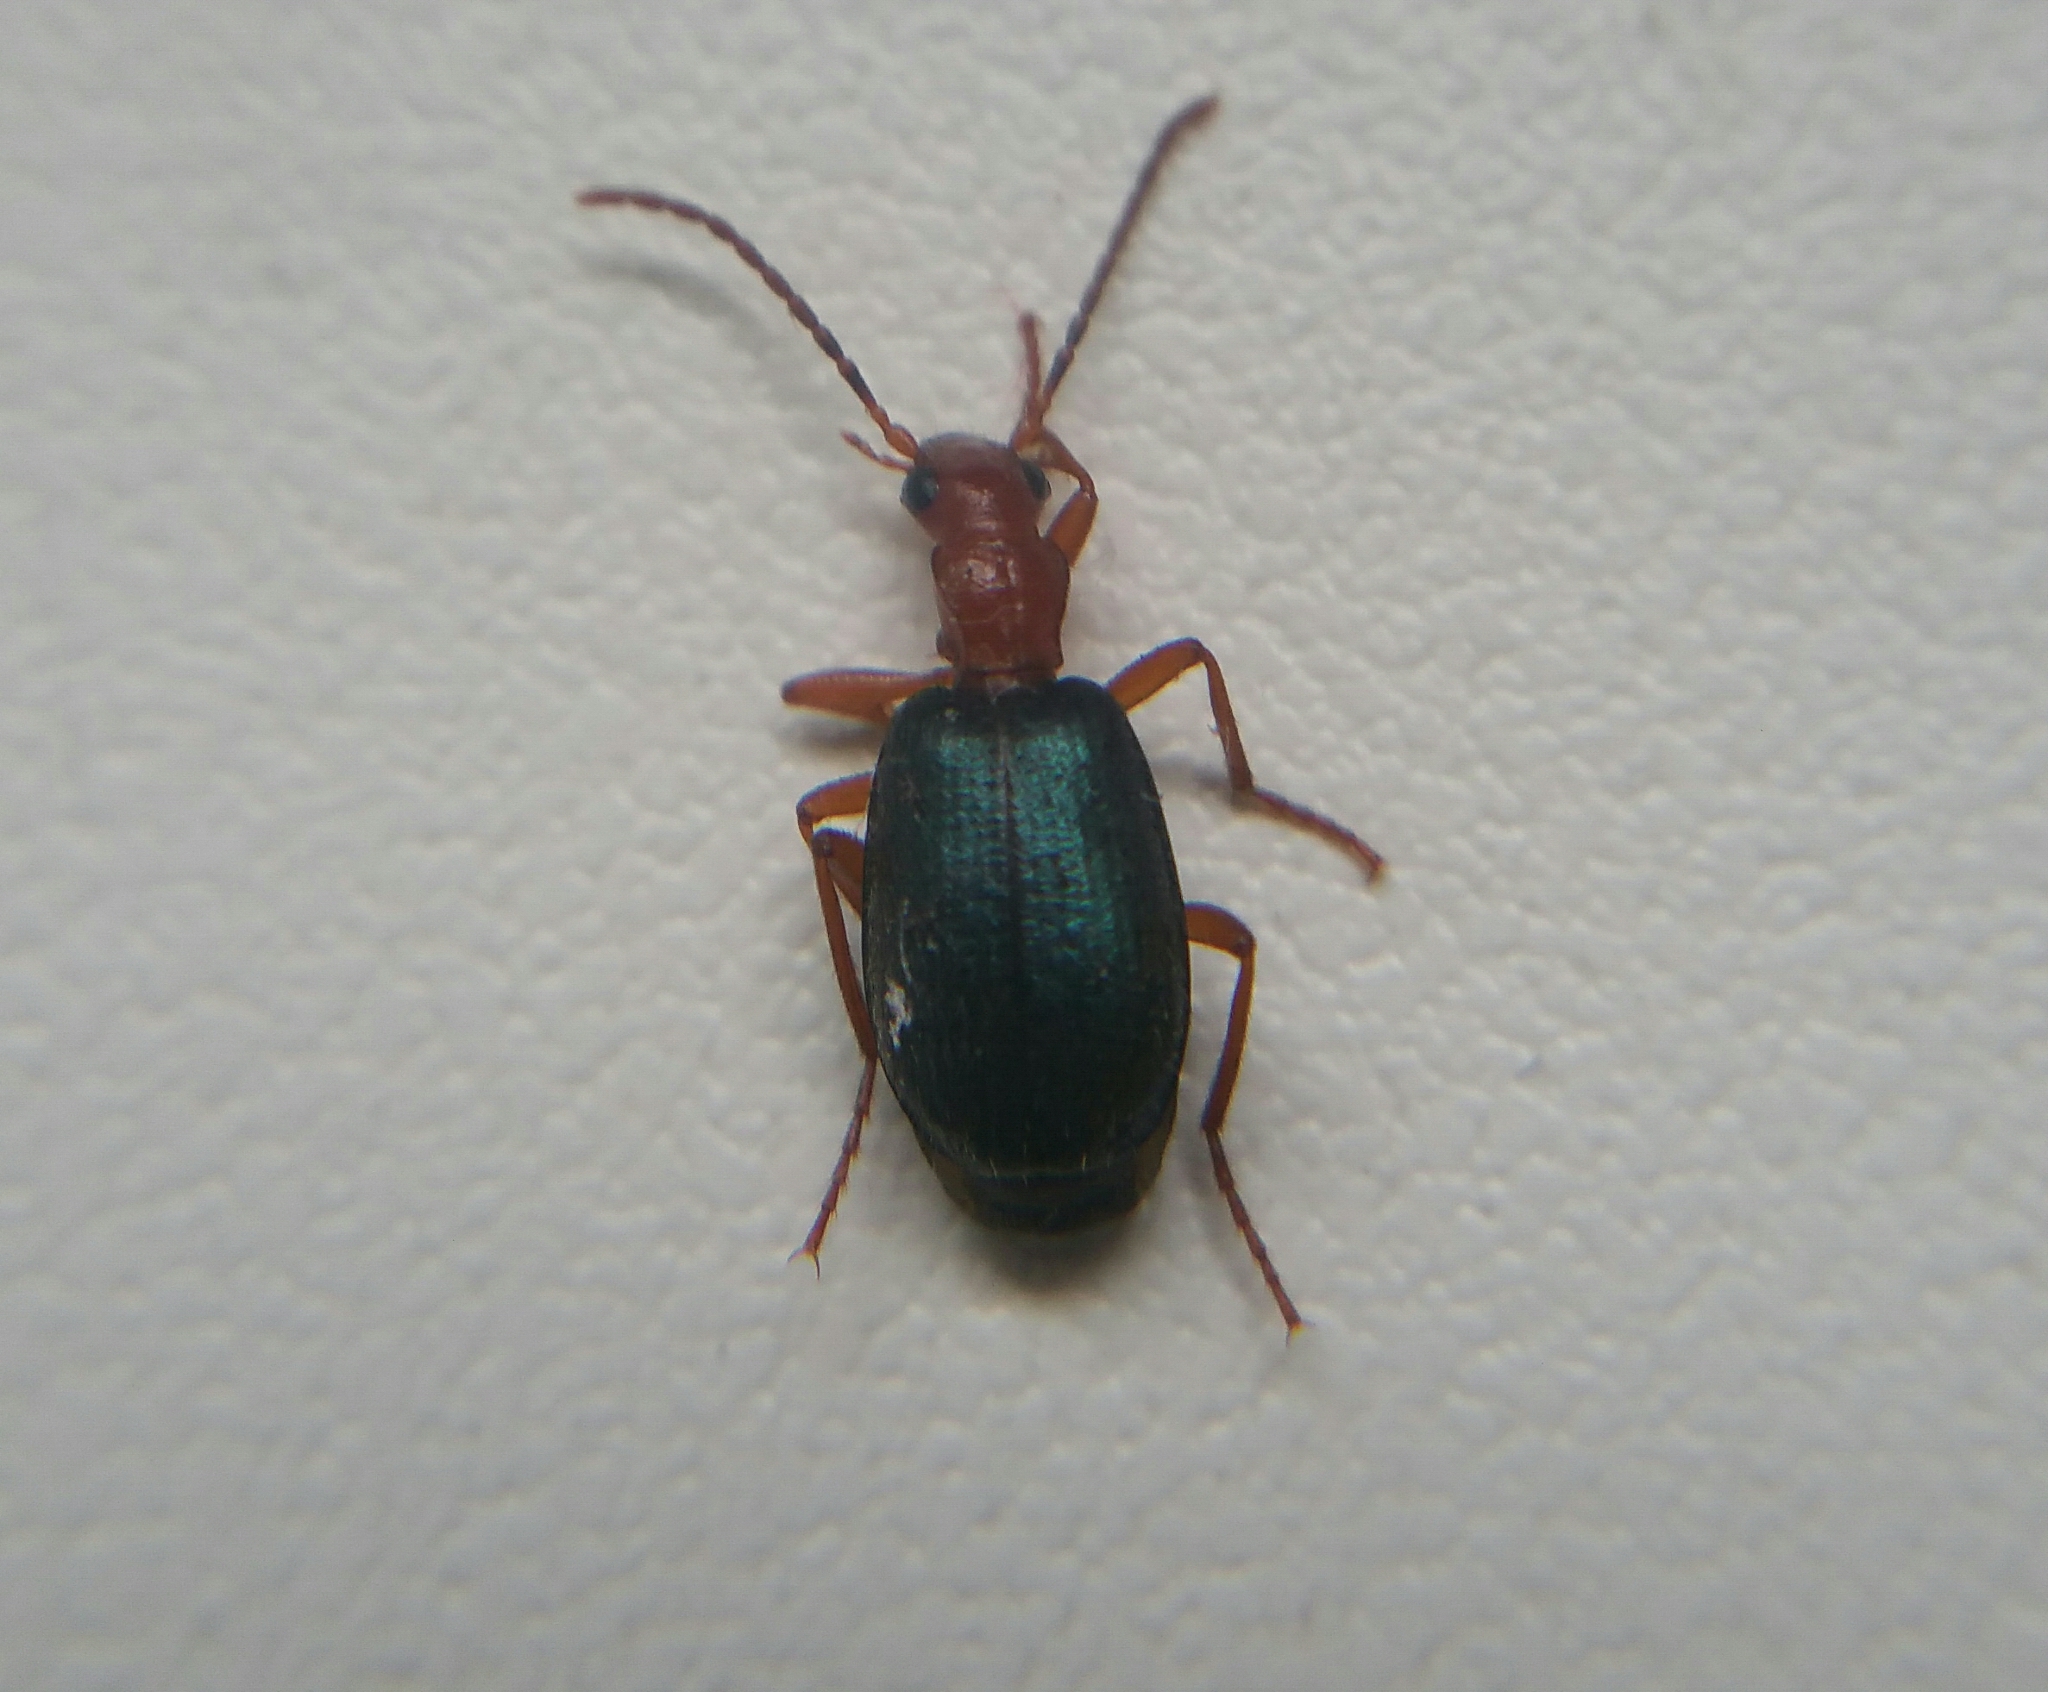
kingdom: Animalia
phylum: Arthropoda
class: Insecta
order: Coleoptera
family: Carabidae
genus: Brachinus
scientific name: Brachinus explodens
